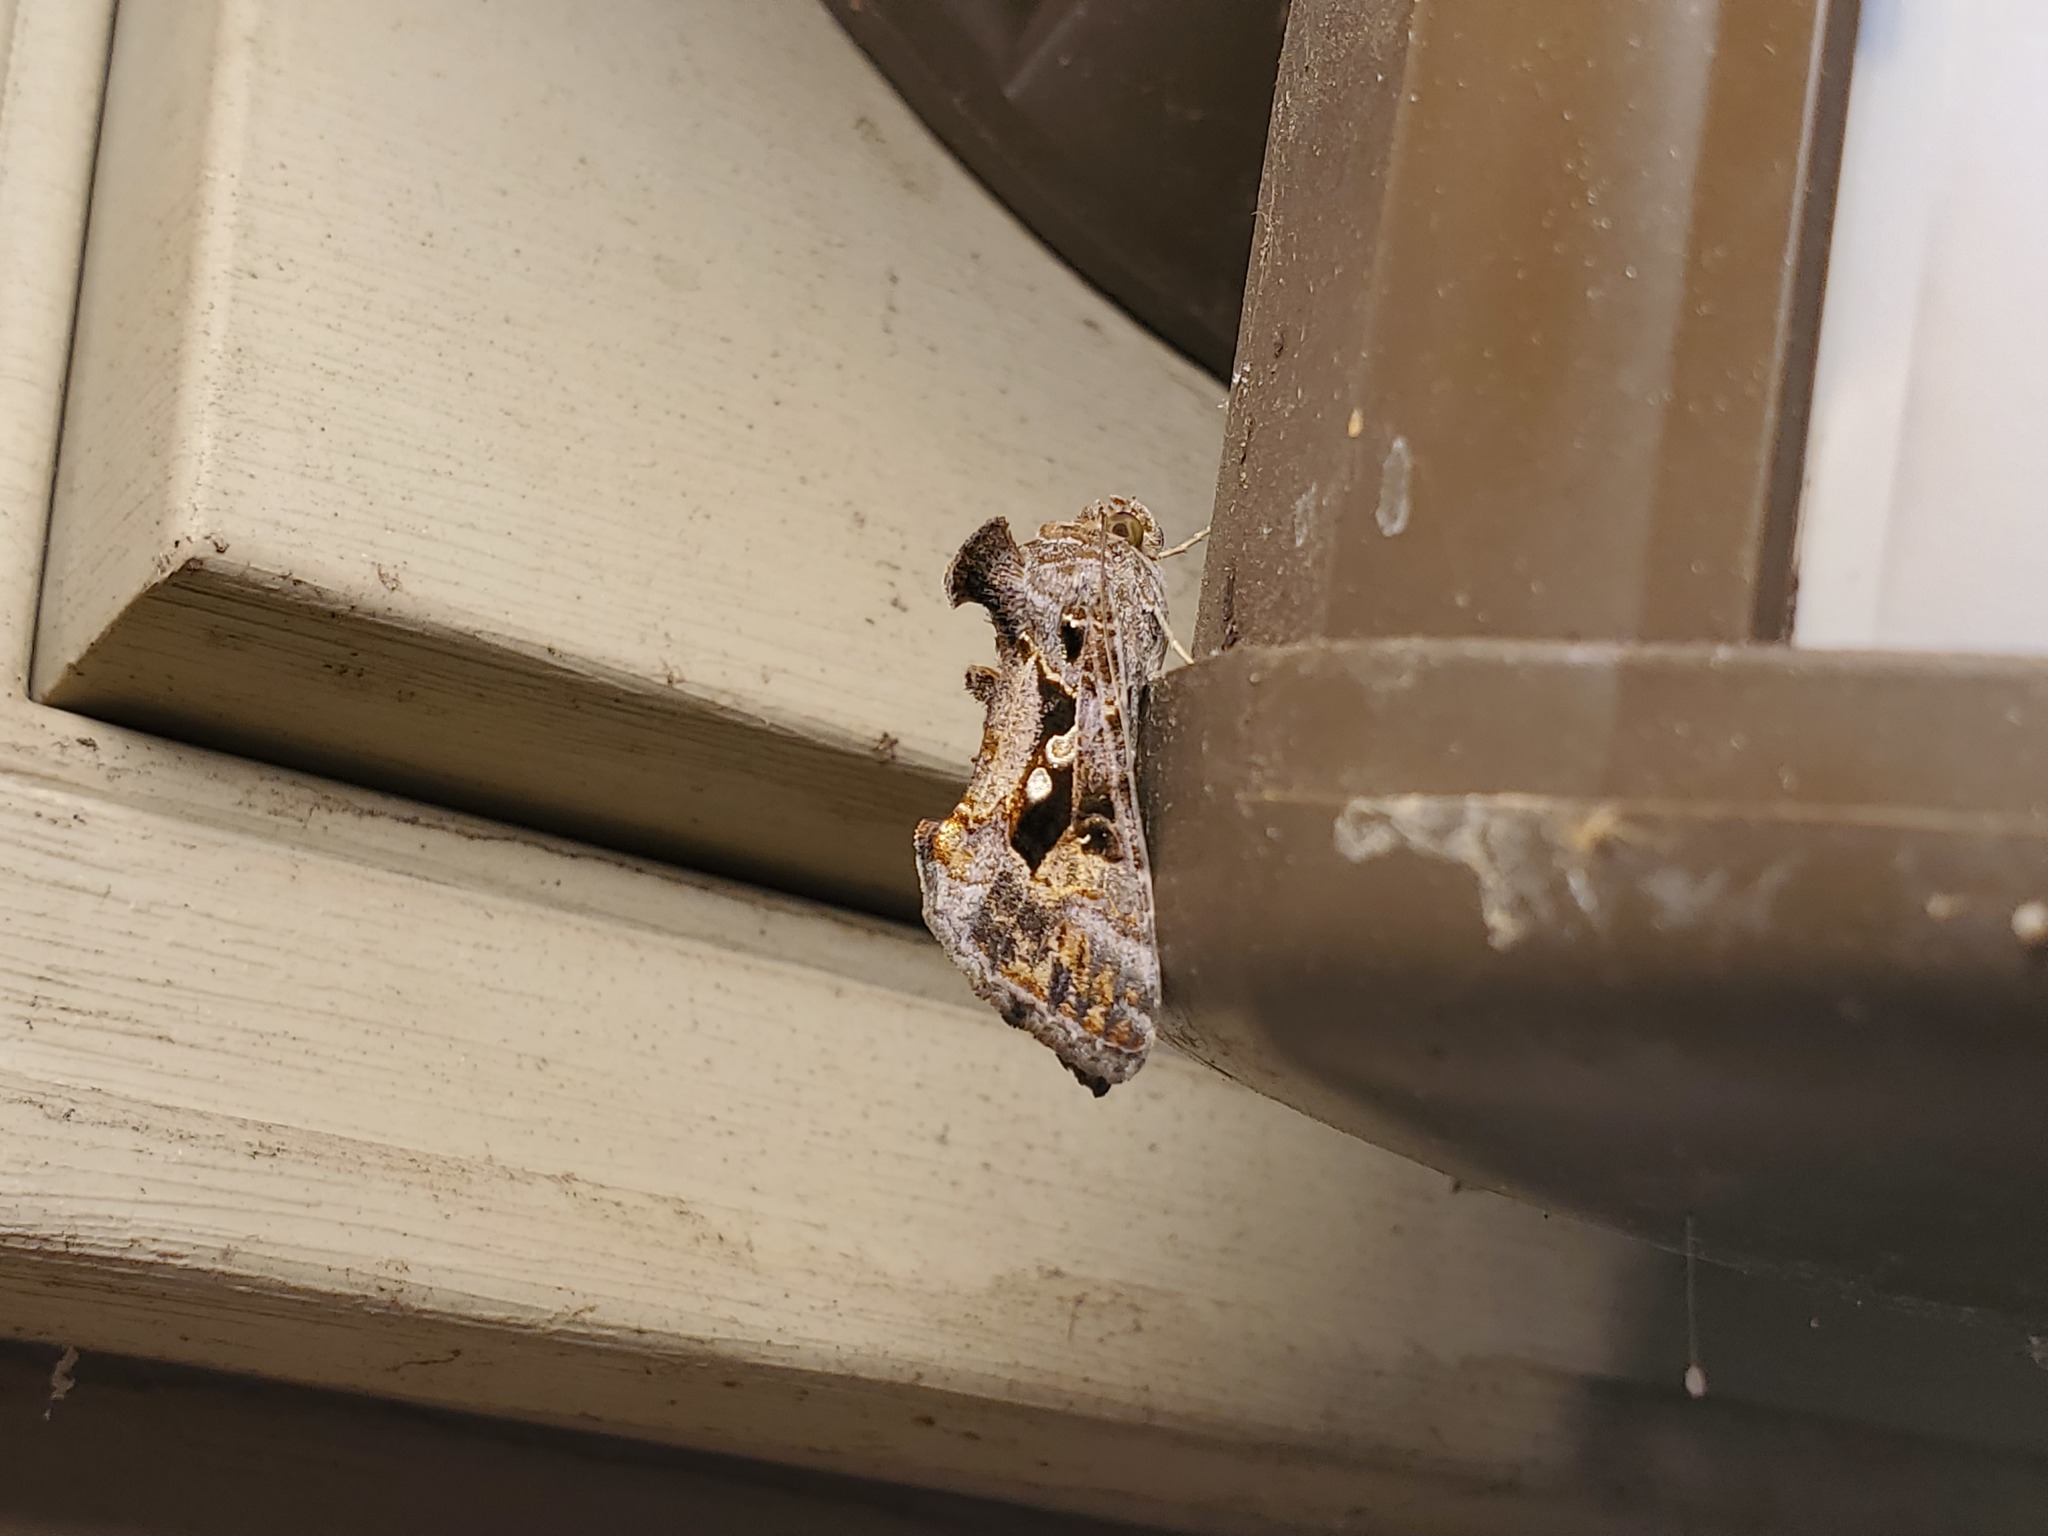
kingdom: Animalia
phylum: Arthropoda
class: Insecta
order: Lepidoptera
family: Noctuidae
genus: Chrysodeixis
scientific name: Chrysodeixis includens
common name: Cutworm moth
